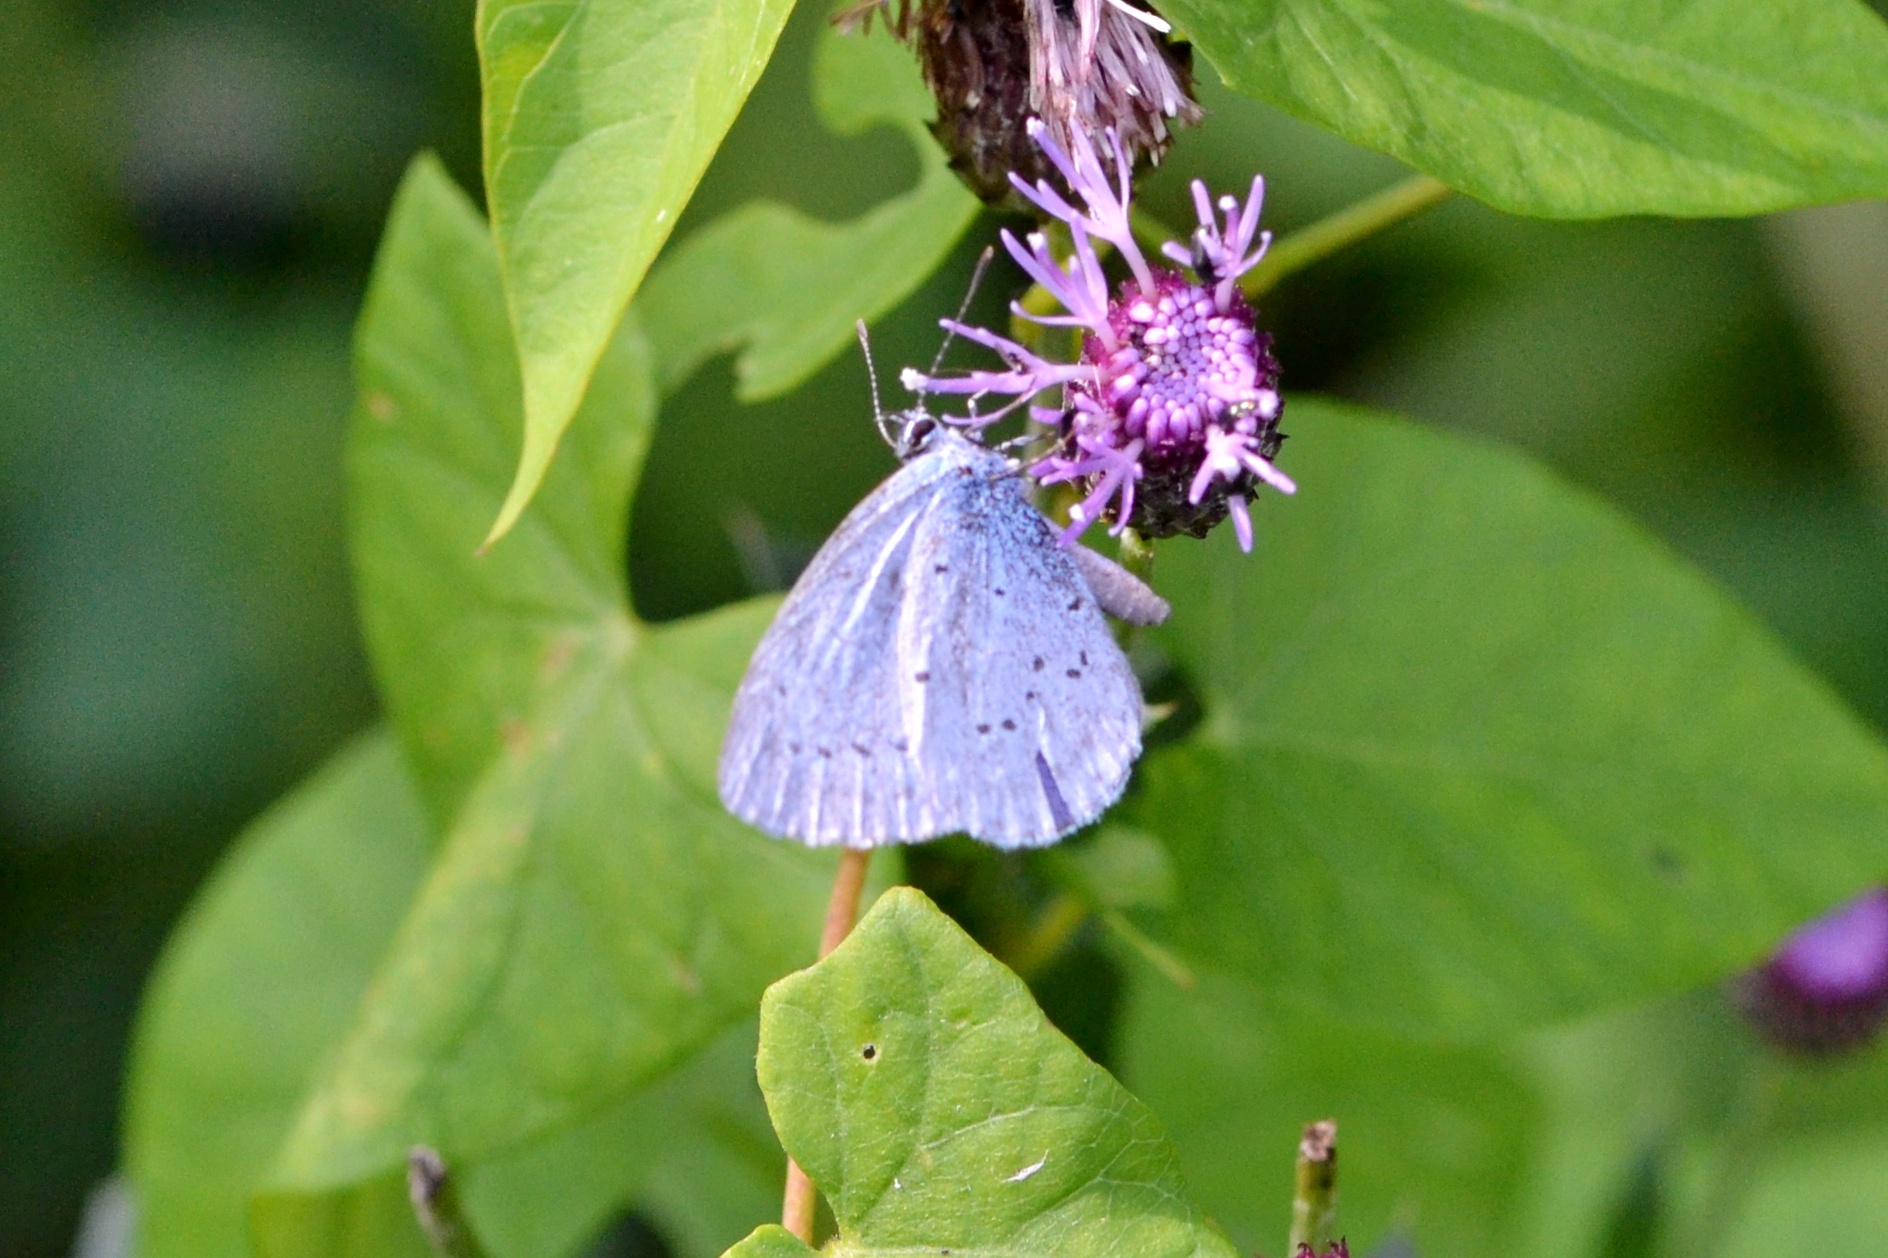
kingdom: Animalia
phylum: Arthropoda
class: Insecta
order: Lepidoptera
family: Lycaenidae
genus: Celastrina
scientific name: Celastrina argiolus
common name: Holly blue
